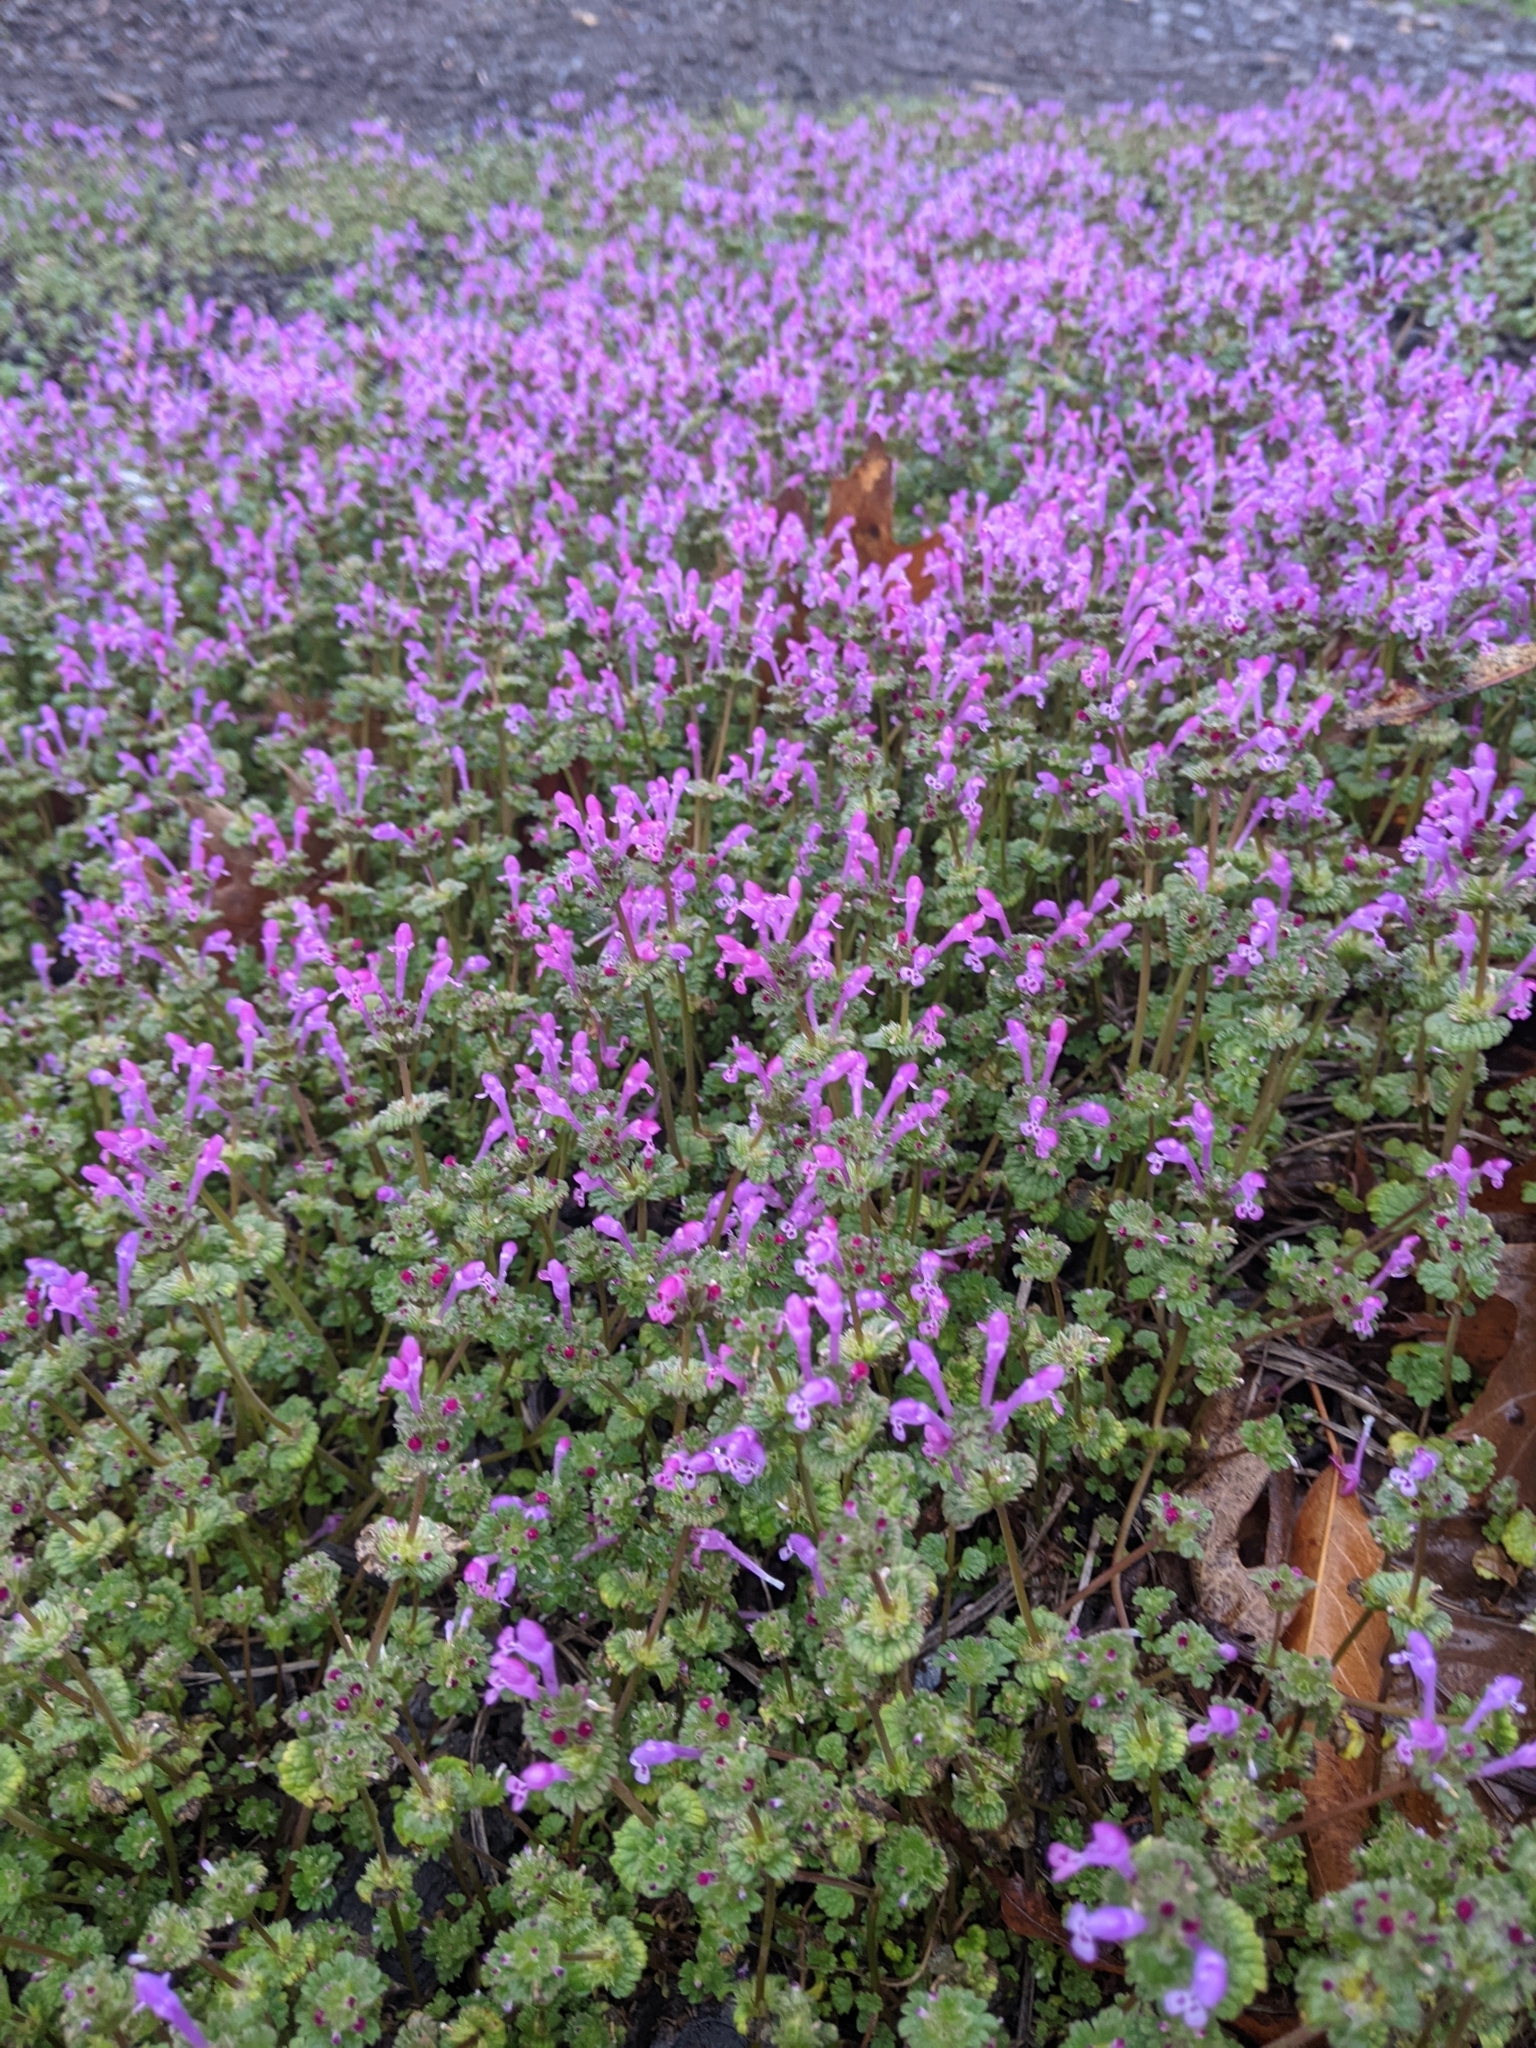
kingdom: Plantae
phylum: Tracheophyta
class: Magnoliopsida
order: Lamiales
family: Lamiaceae
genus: Lamium
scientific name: Lamium amplexicaule
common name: Henbit dead-nettle
